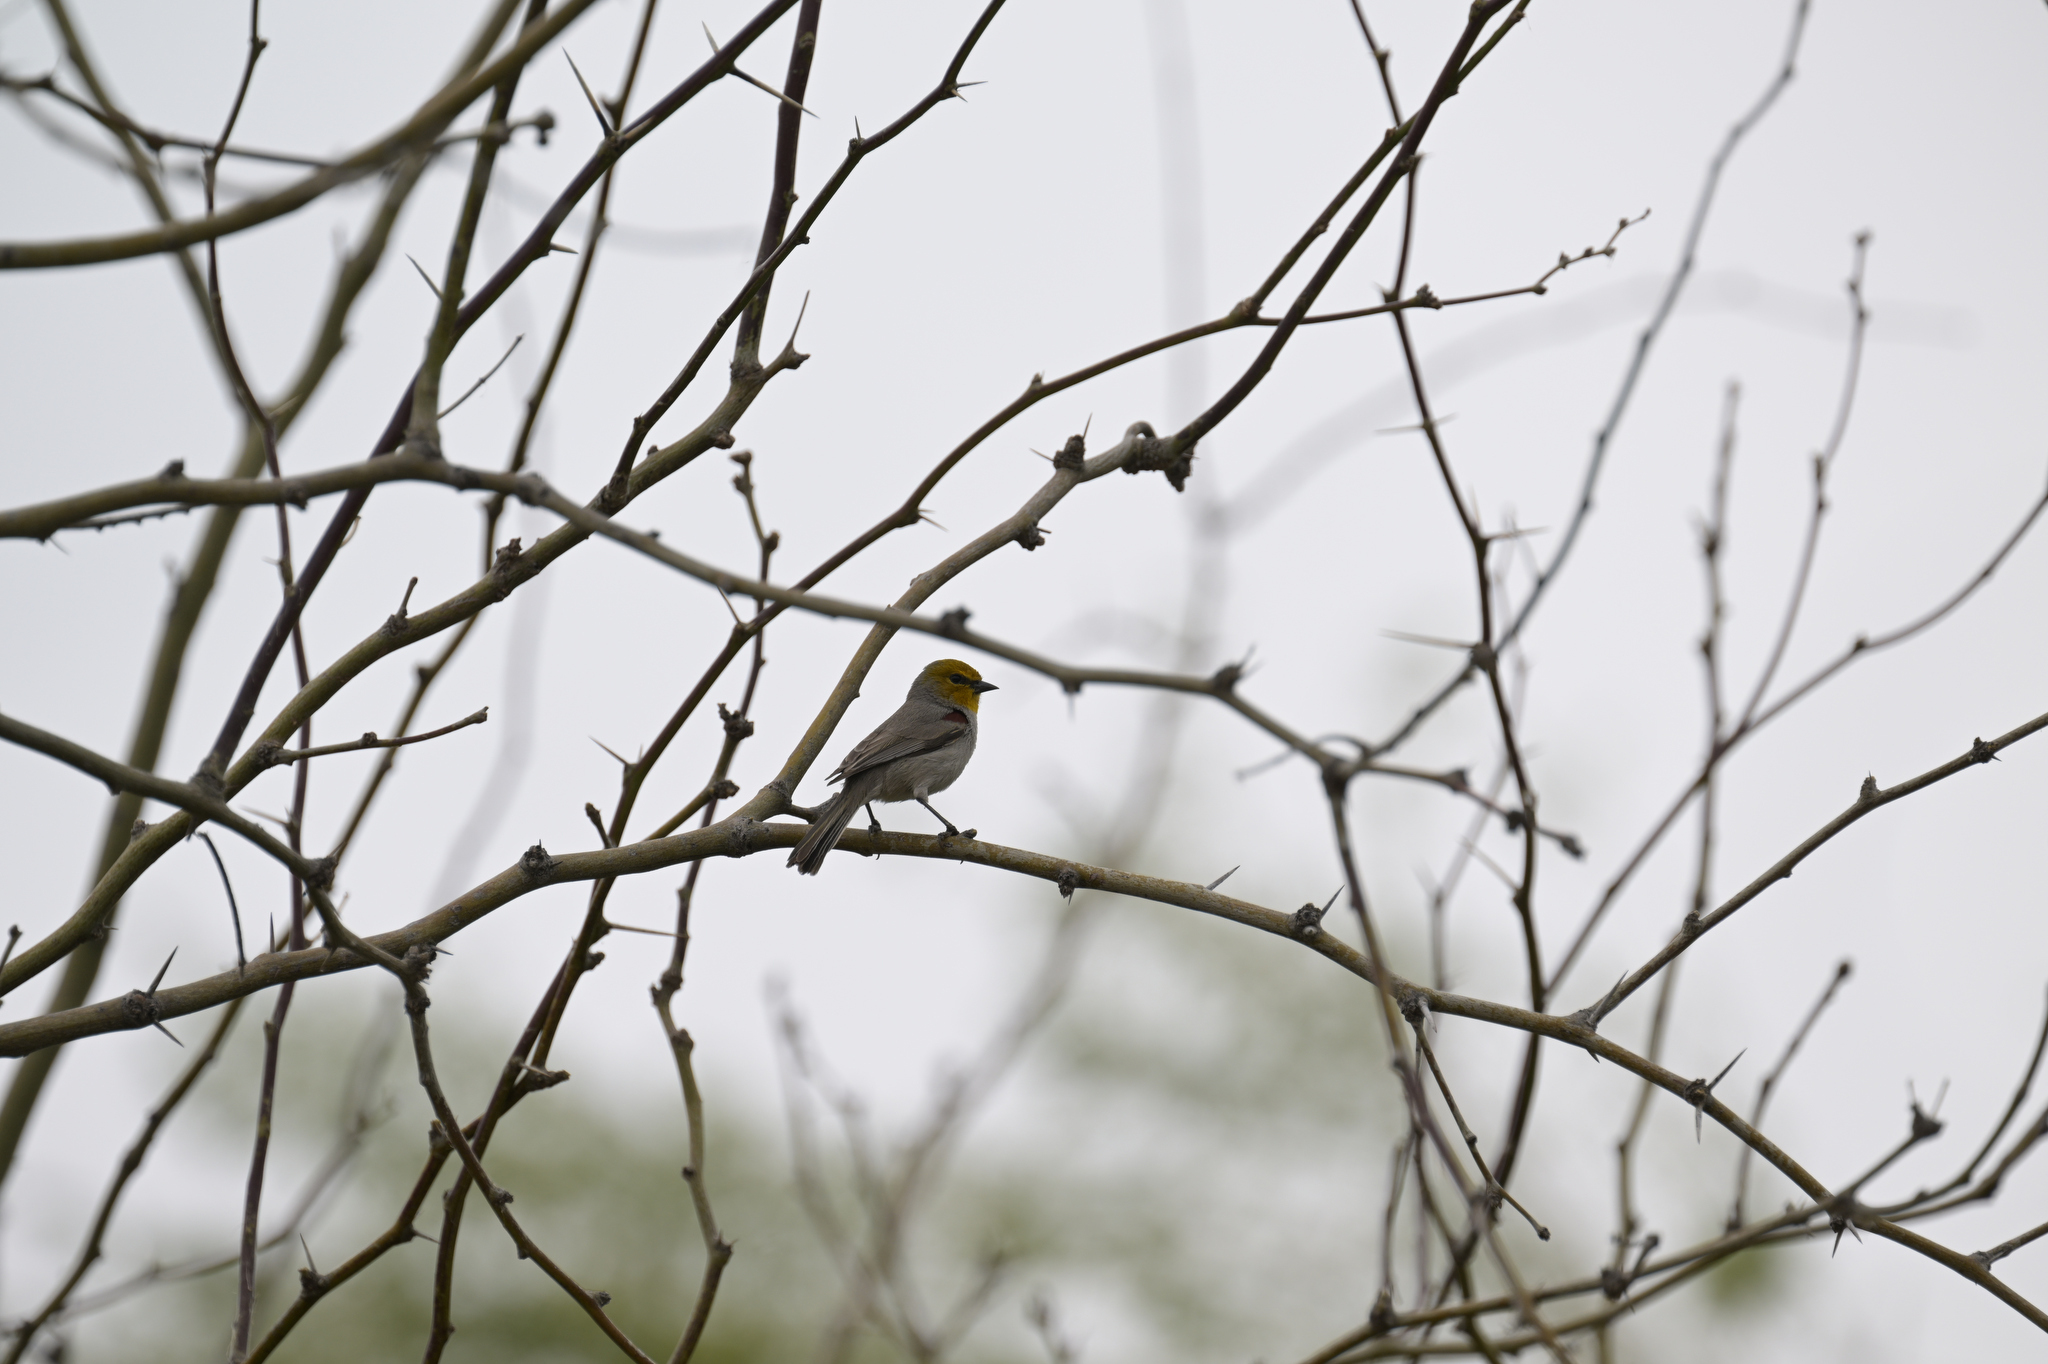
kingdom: Animalia
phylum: Chordata
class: Aves
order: Passeriformes
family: Remizidae
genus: Auriparus
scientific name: Auriparus flaviceps
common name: Verdin
